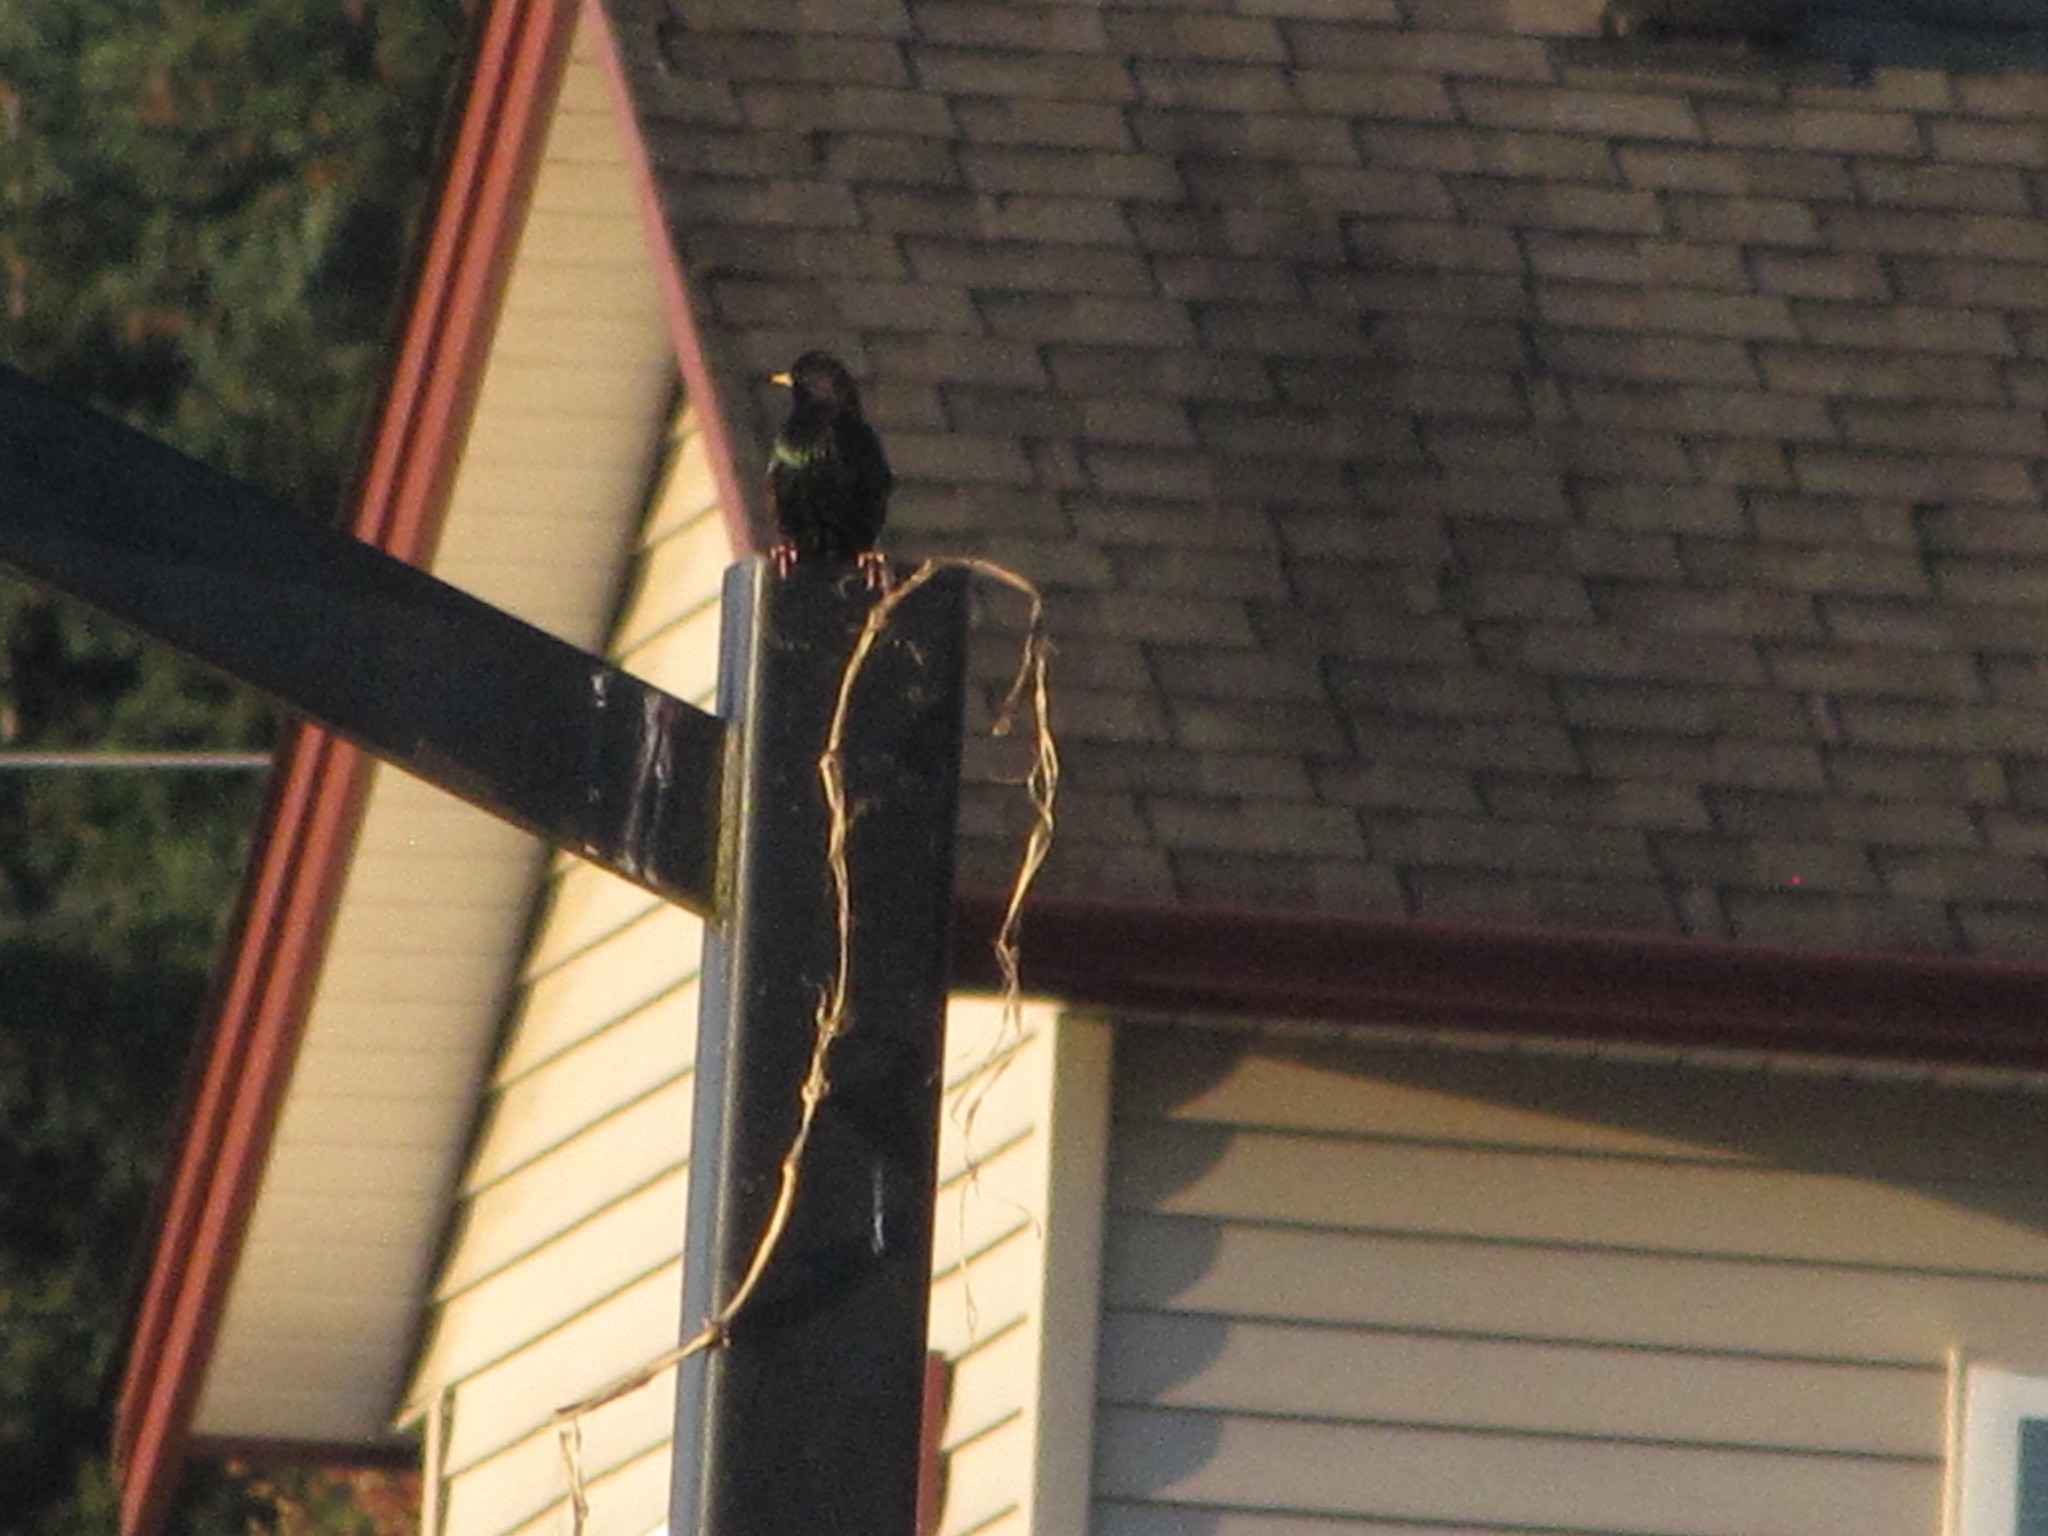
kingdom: Animalia
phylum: Chordata
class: Aves
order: Passeriformes
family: Sturnidae
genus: Sturnus
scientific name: Sturnus vulgaris
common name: Common starling
